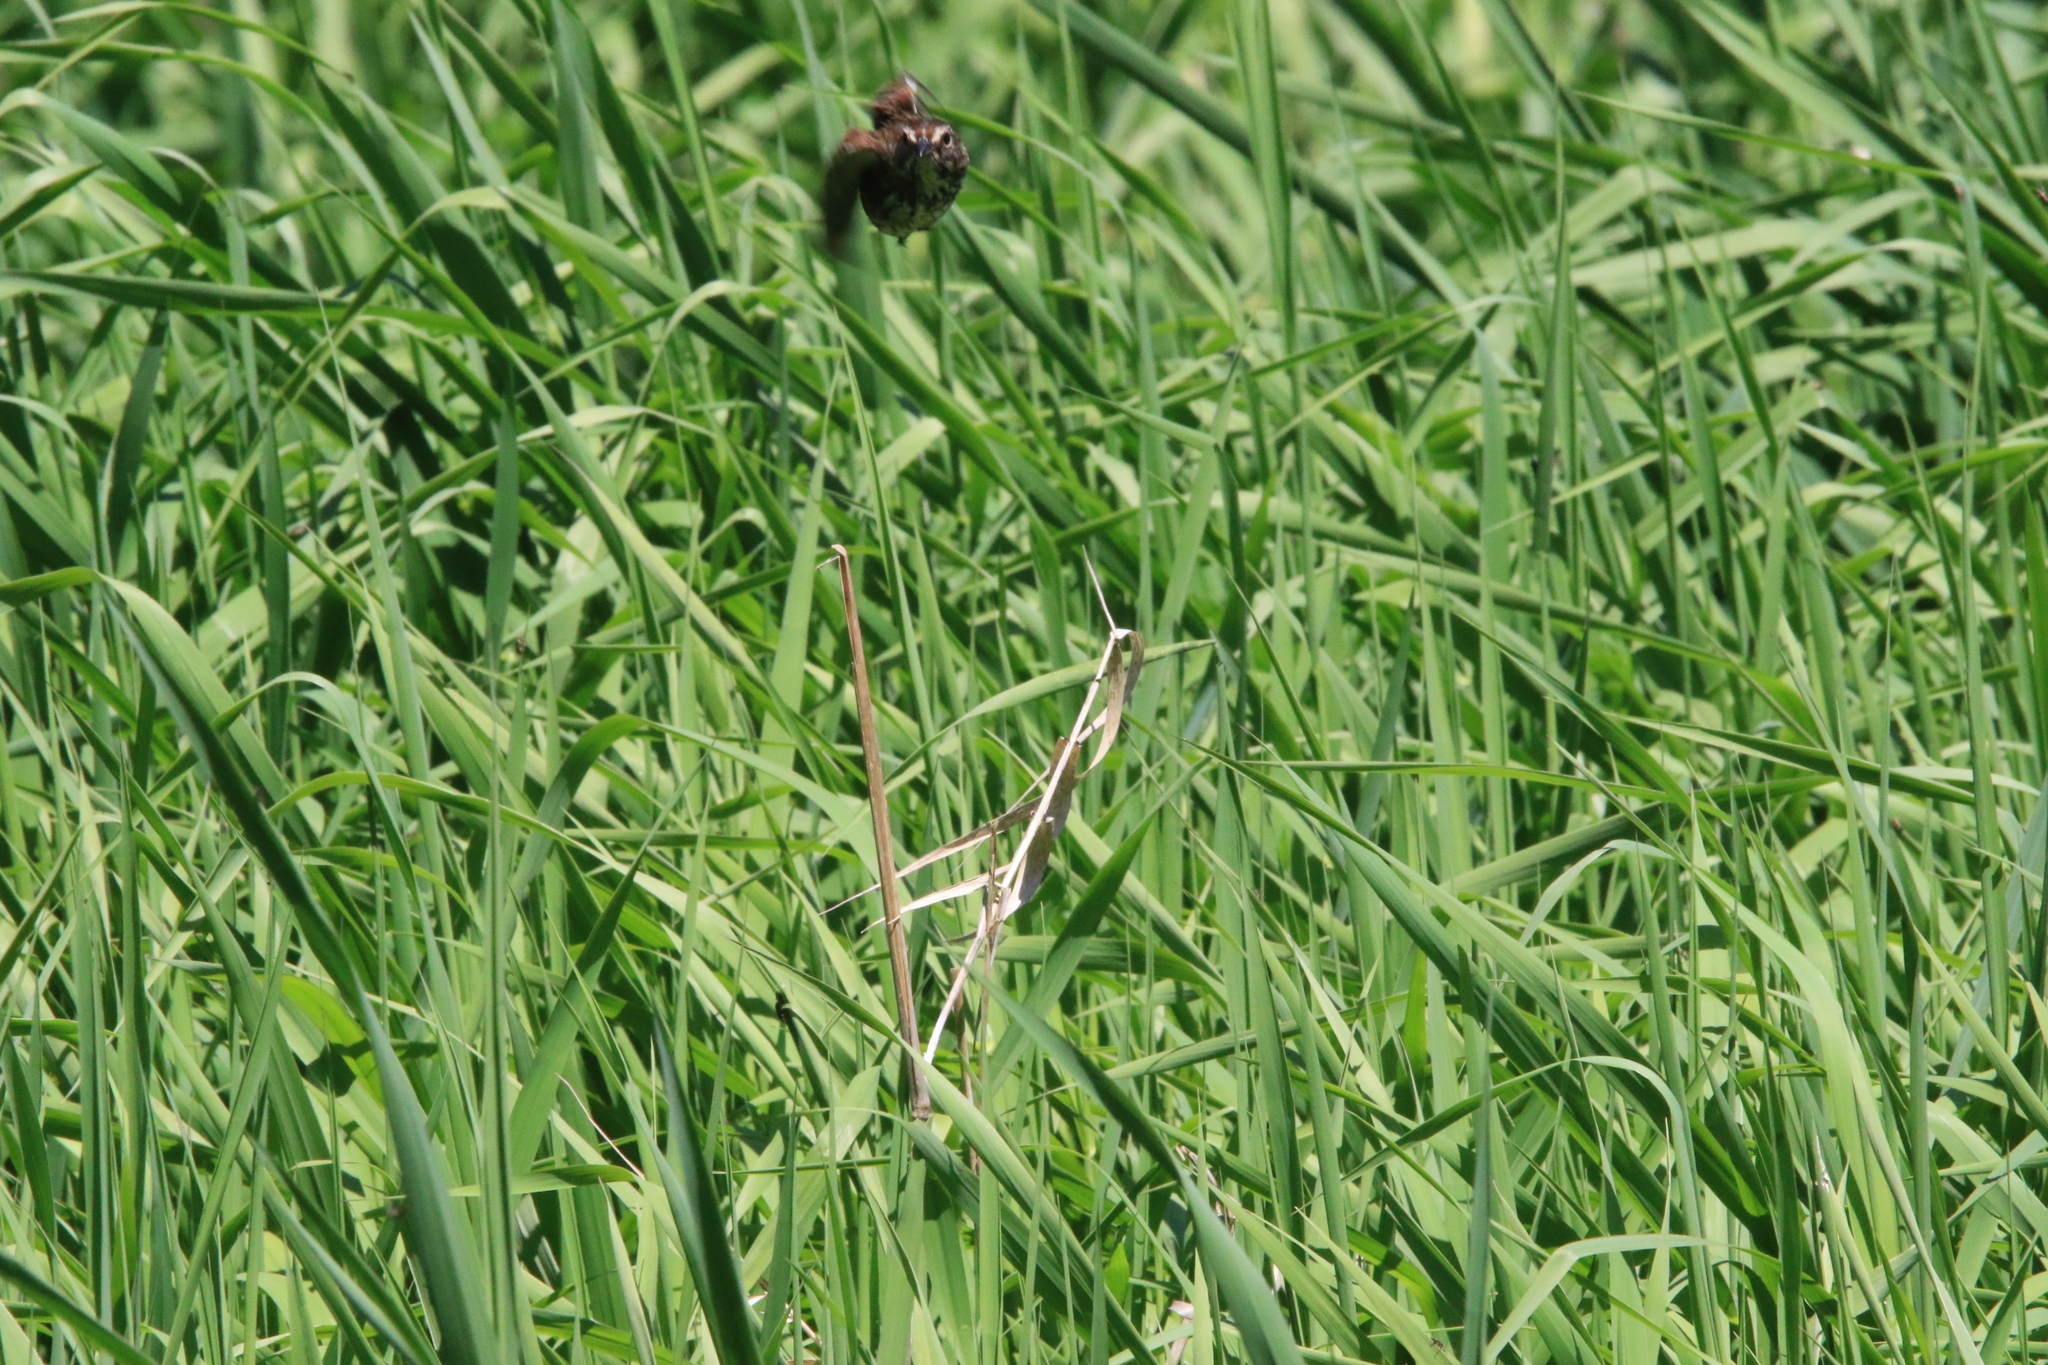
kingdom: Animalia
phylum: Chordata
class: Aves
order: Passeriformes
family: Passerellidae
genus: Melospiza
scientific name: Melospiza melodia
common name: Song sparrow
